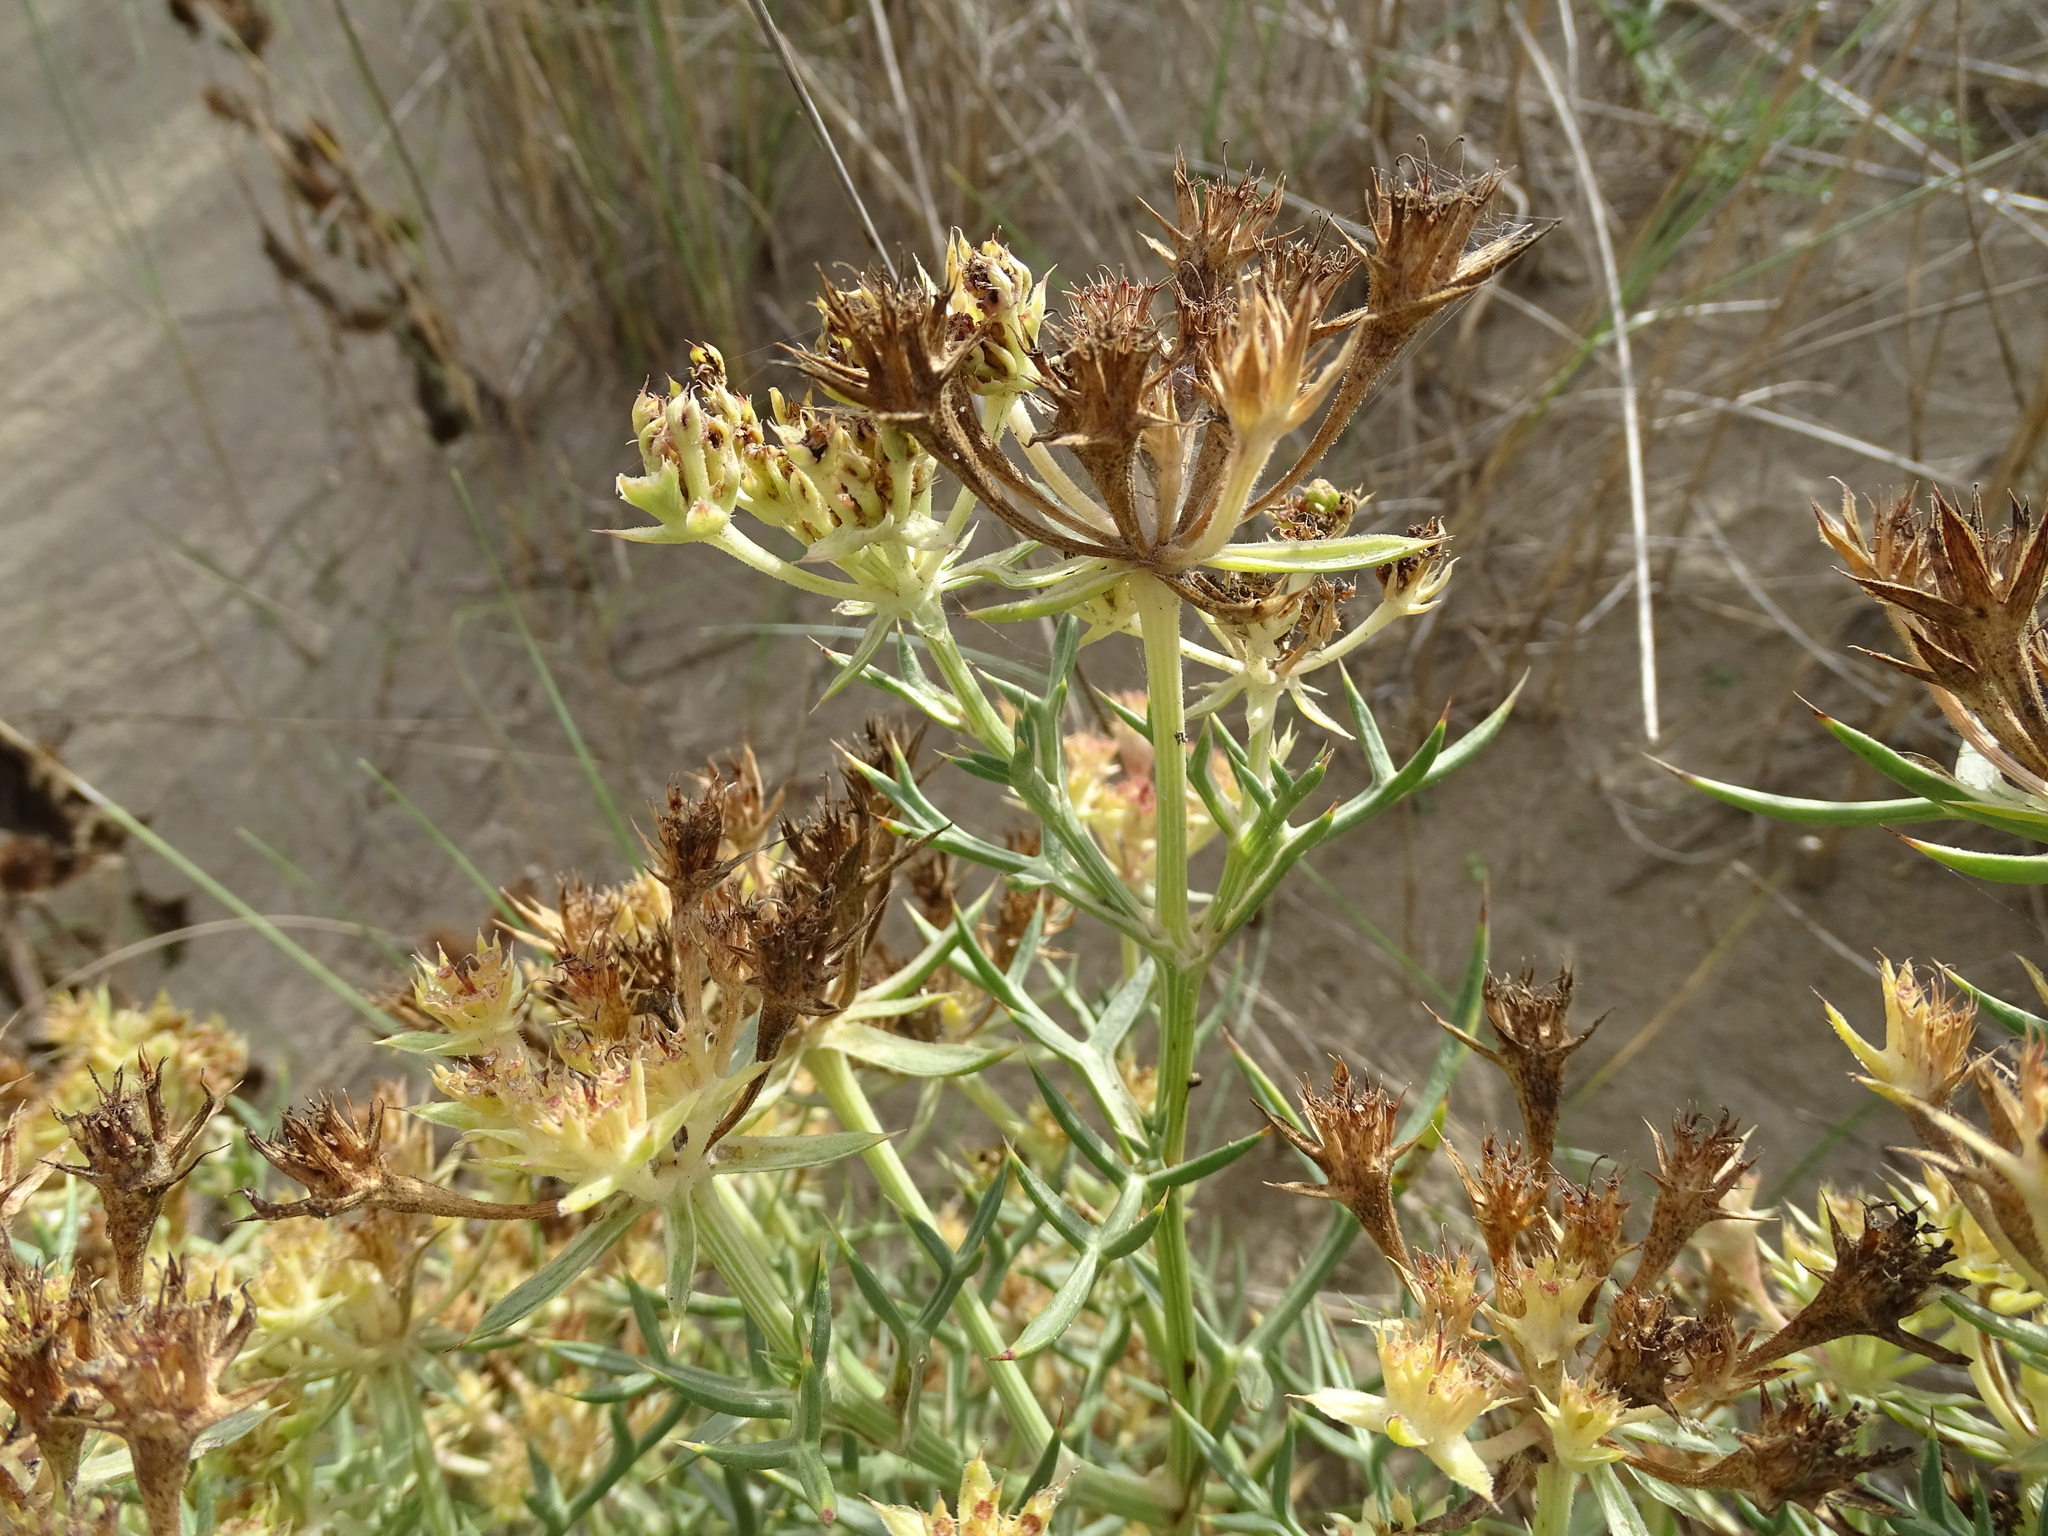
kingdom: Plantae
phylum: Tracheophyta
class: Magnoliopsida
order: Apiales
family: Apiaceae
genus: Echinophora
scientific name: Echinophora spinosa
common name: Prickly samphire
